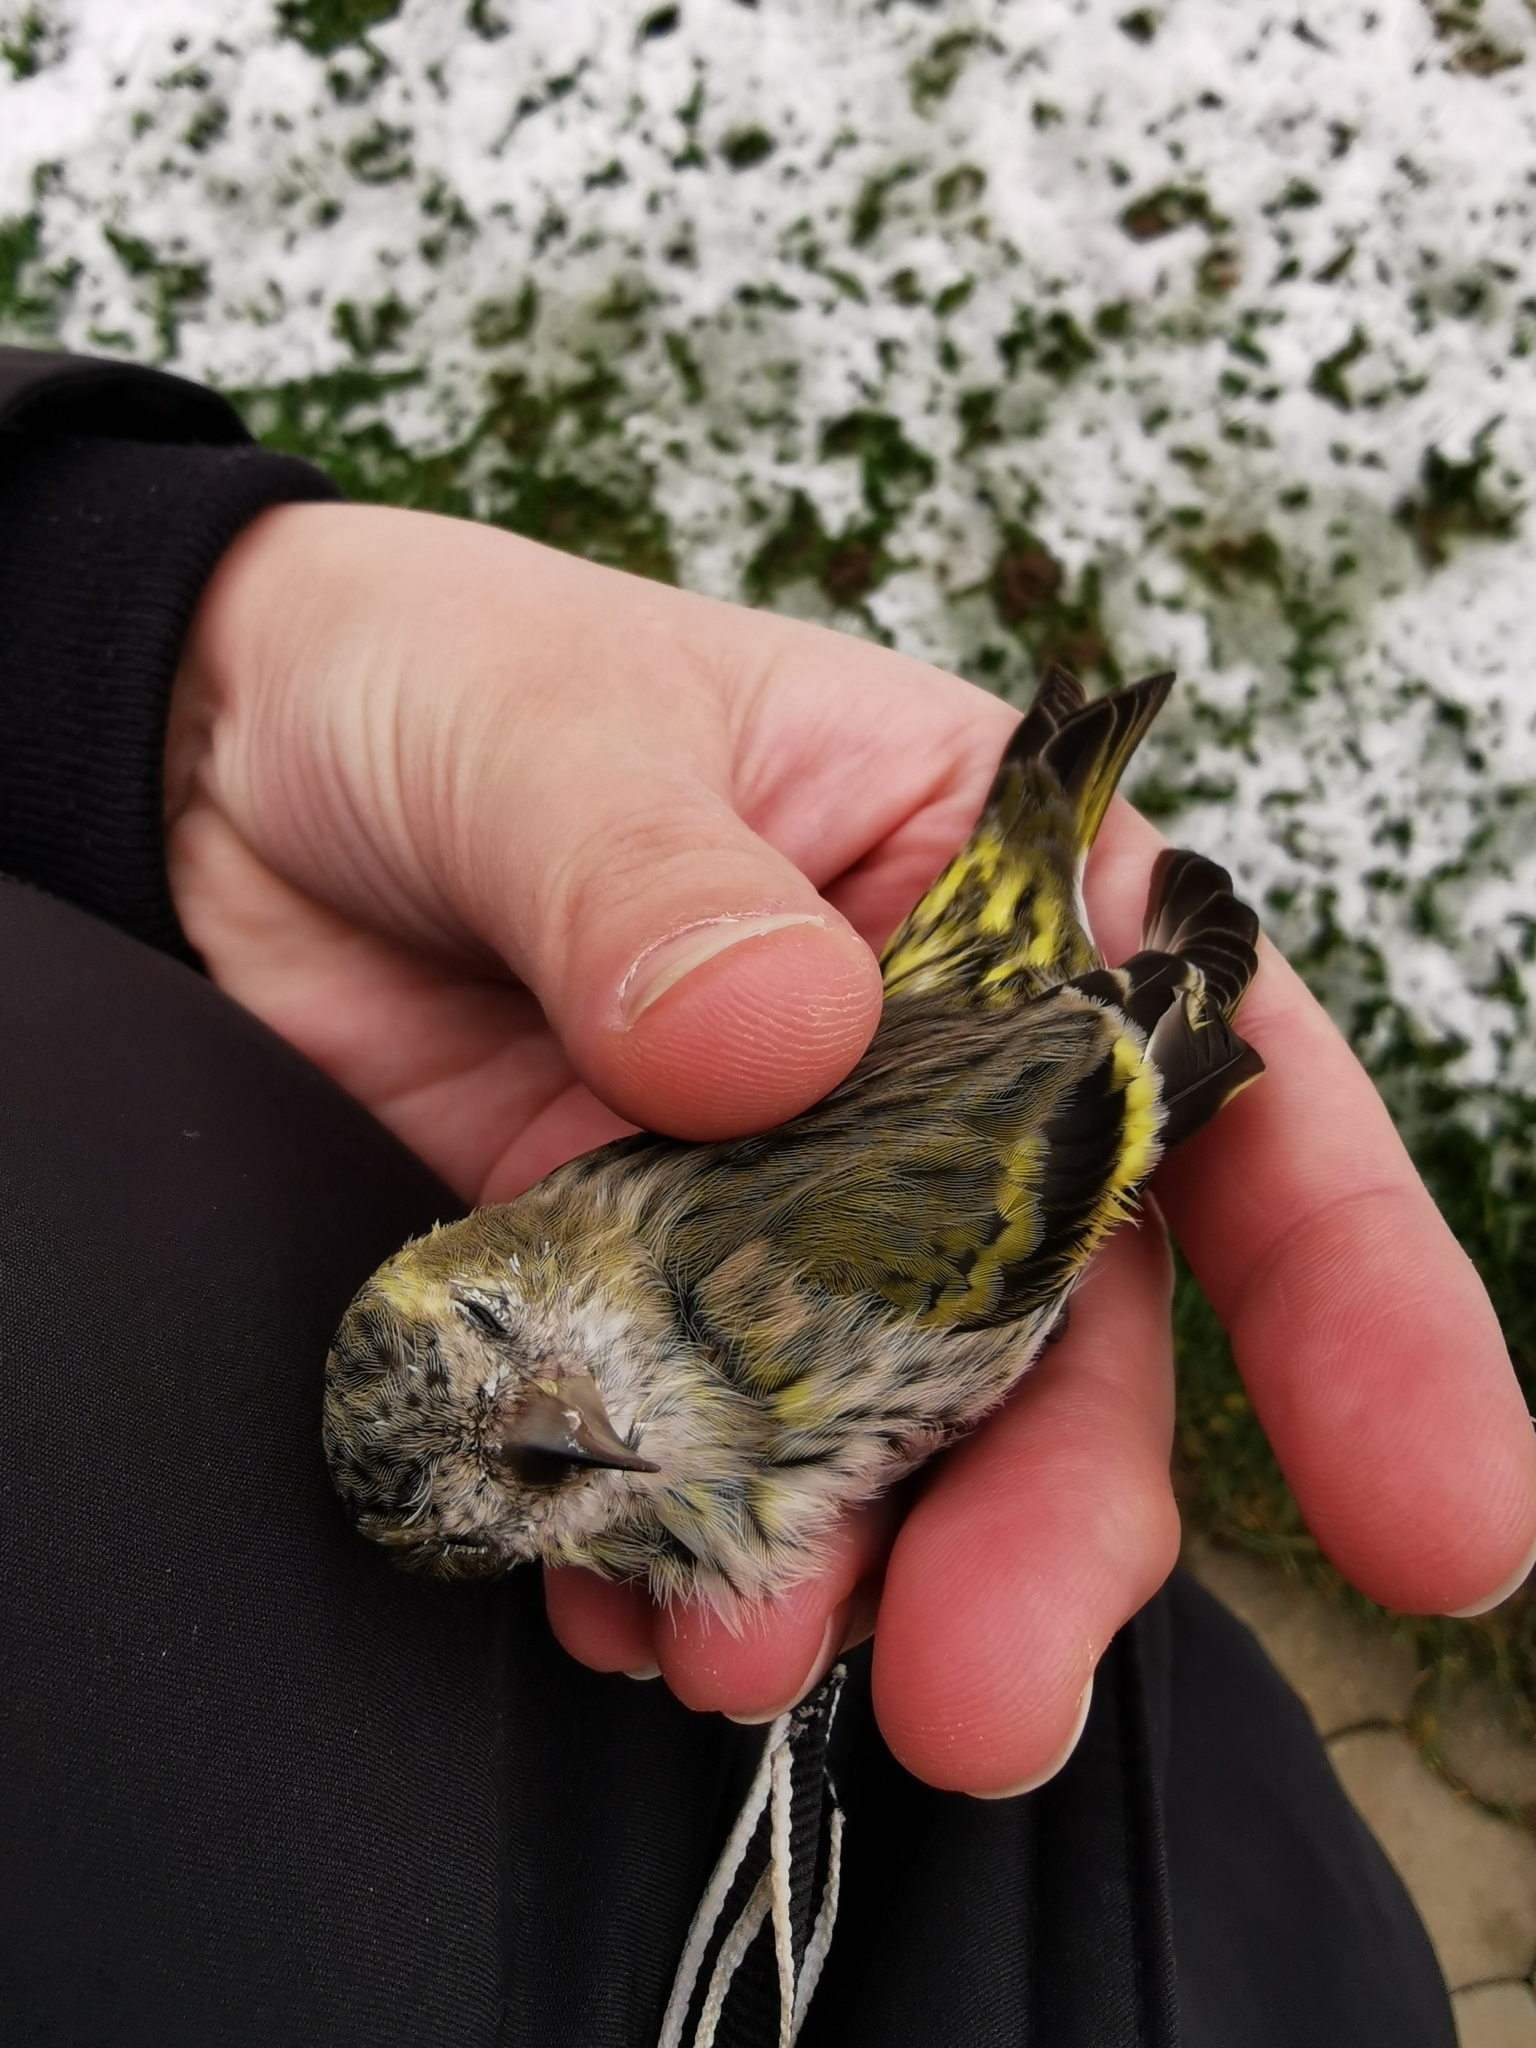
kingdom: Animalia
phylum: Chordata
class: Aves
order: Passeriformes
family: Fringillidae
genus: Spinus
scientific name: Spinus spinus
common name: Eurasian siskin
